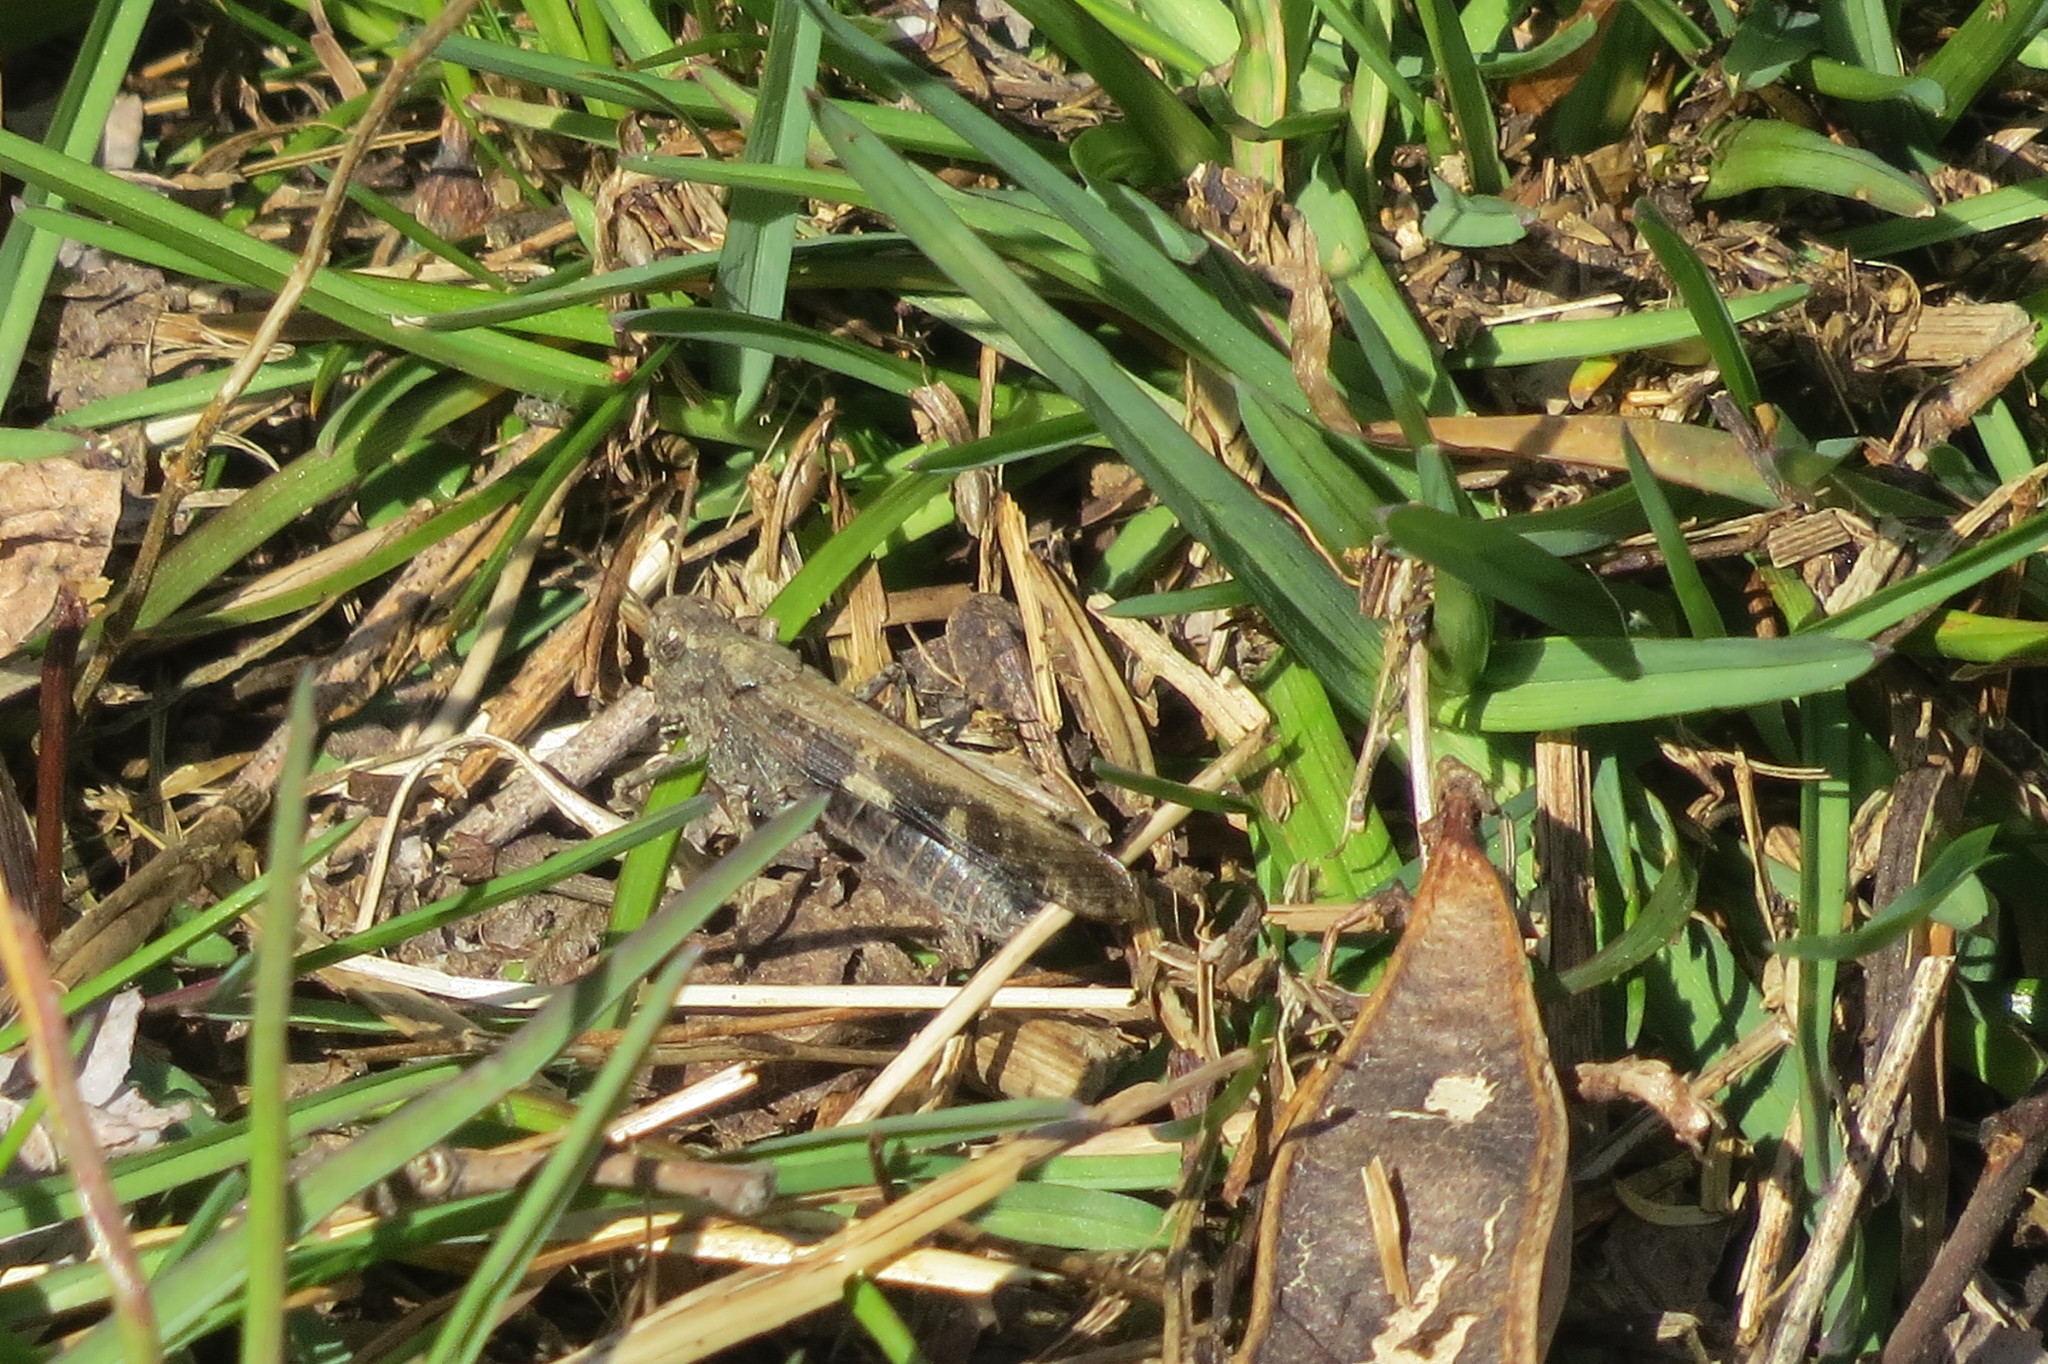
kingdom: Animalia
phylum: Arthropoda
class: Insecta
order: Orthoptera
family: Acrididae
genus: Aiolopus
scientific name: Aiolopus strepens
